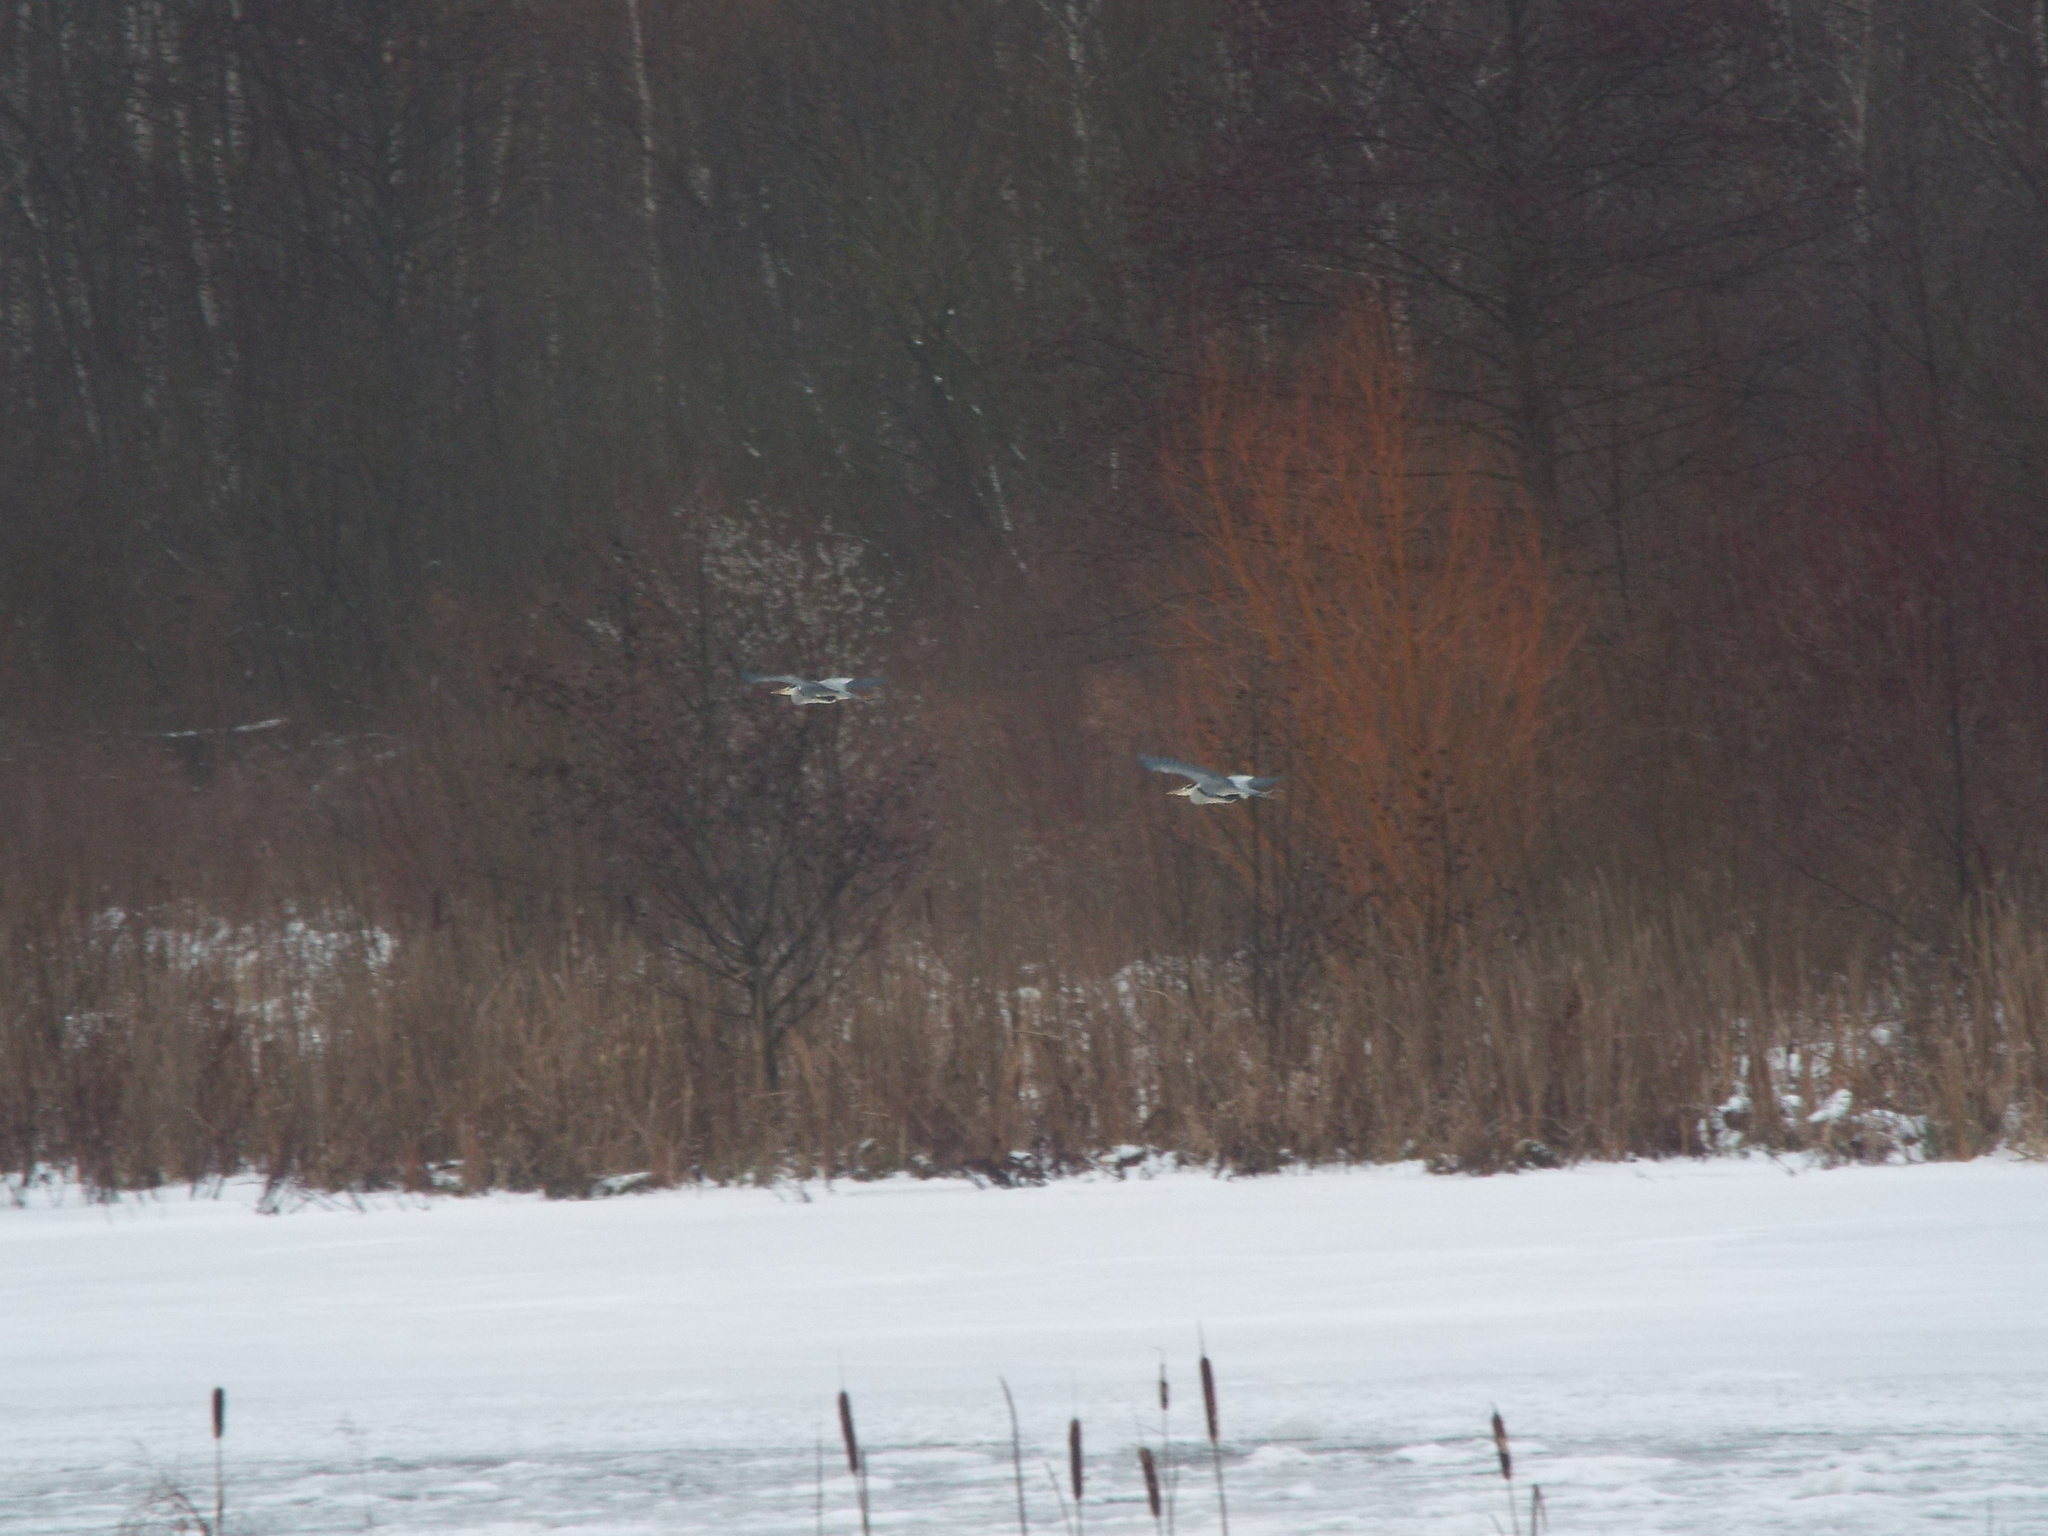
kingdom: Animalia
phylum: Chordata
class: Aves
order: Pelecaniformes
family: Ardeidae
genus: Ardea
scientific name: Ardea cinerea
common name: Grey heron
